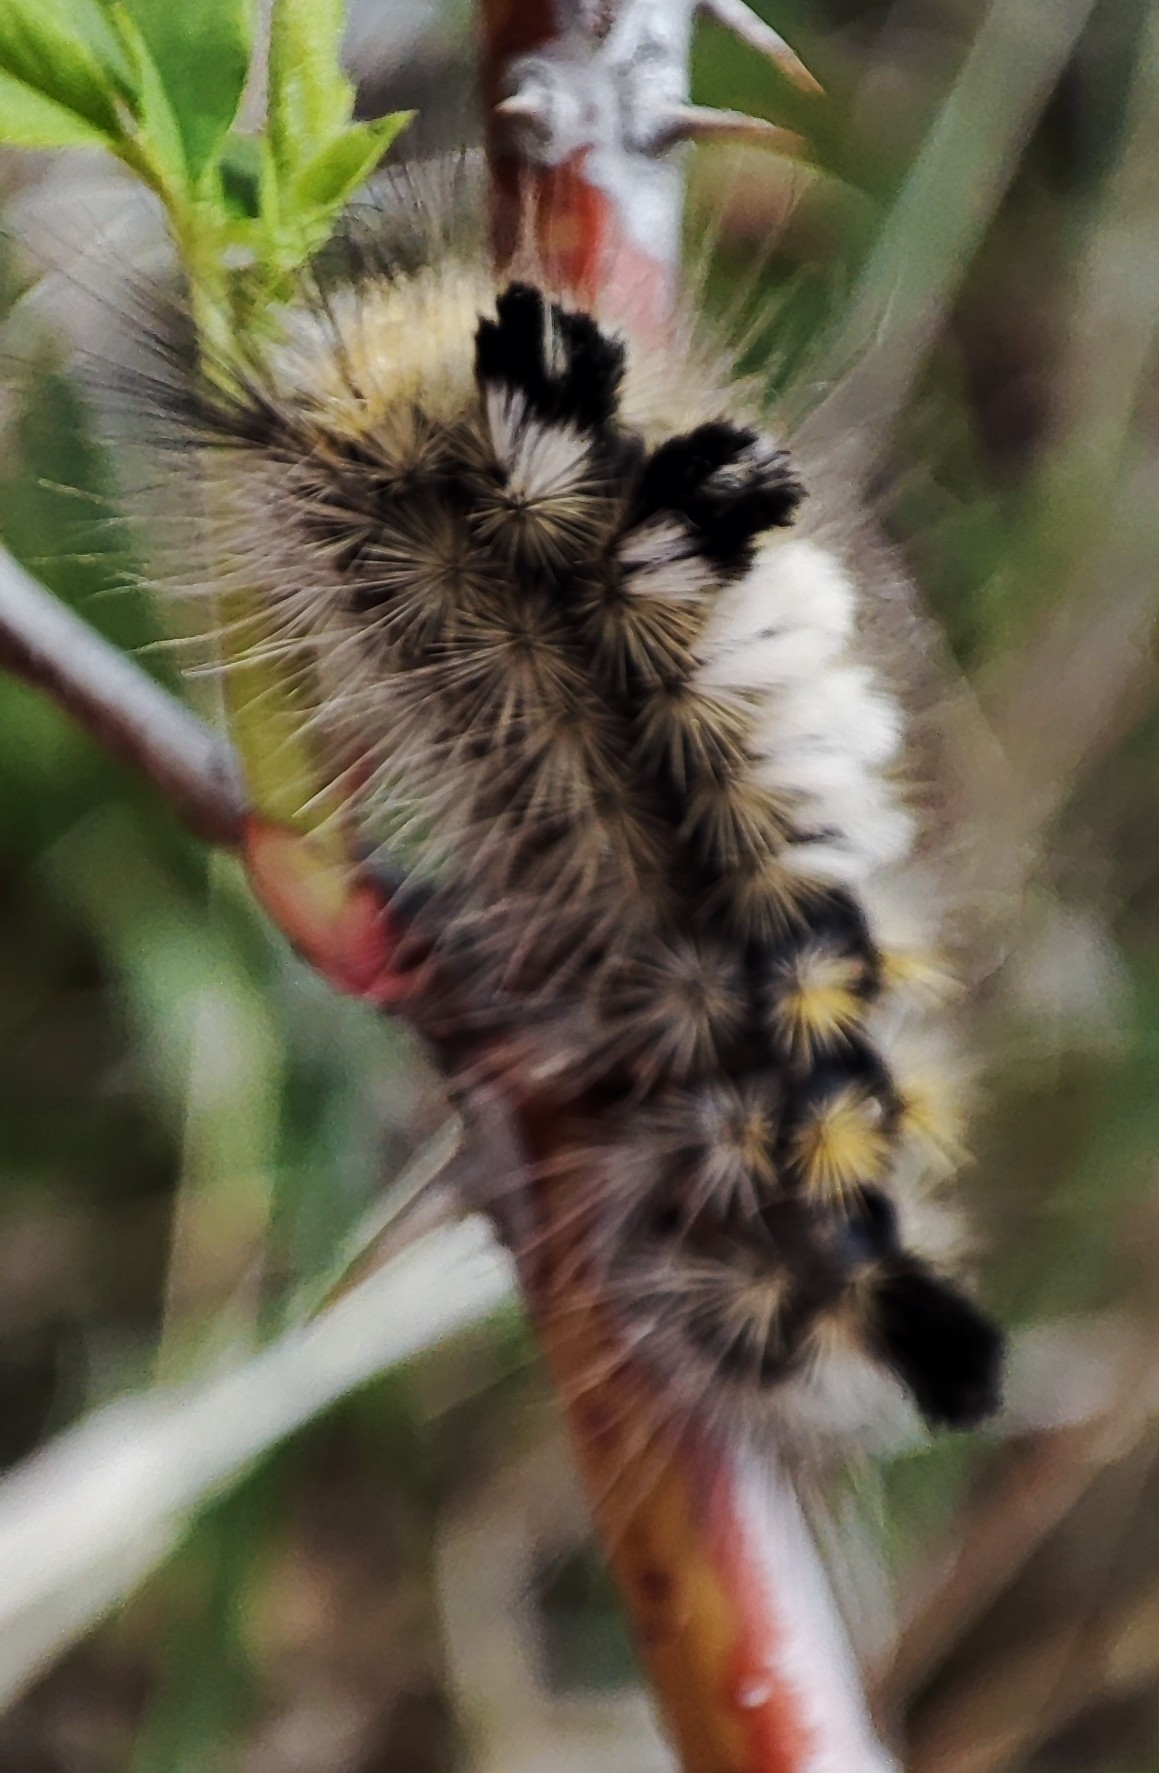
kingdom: Animalia
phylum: Arthropoda
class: Insecta
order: Lepidoptera
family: Erebidae
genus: Calliteara
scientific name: Calliteara Dicallomera fascelina
